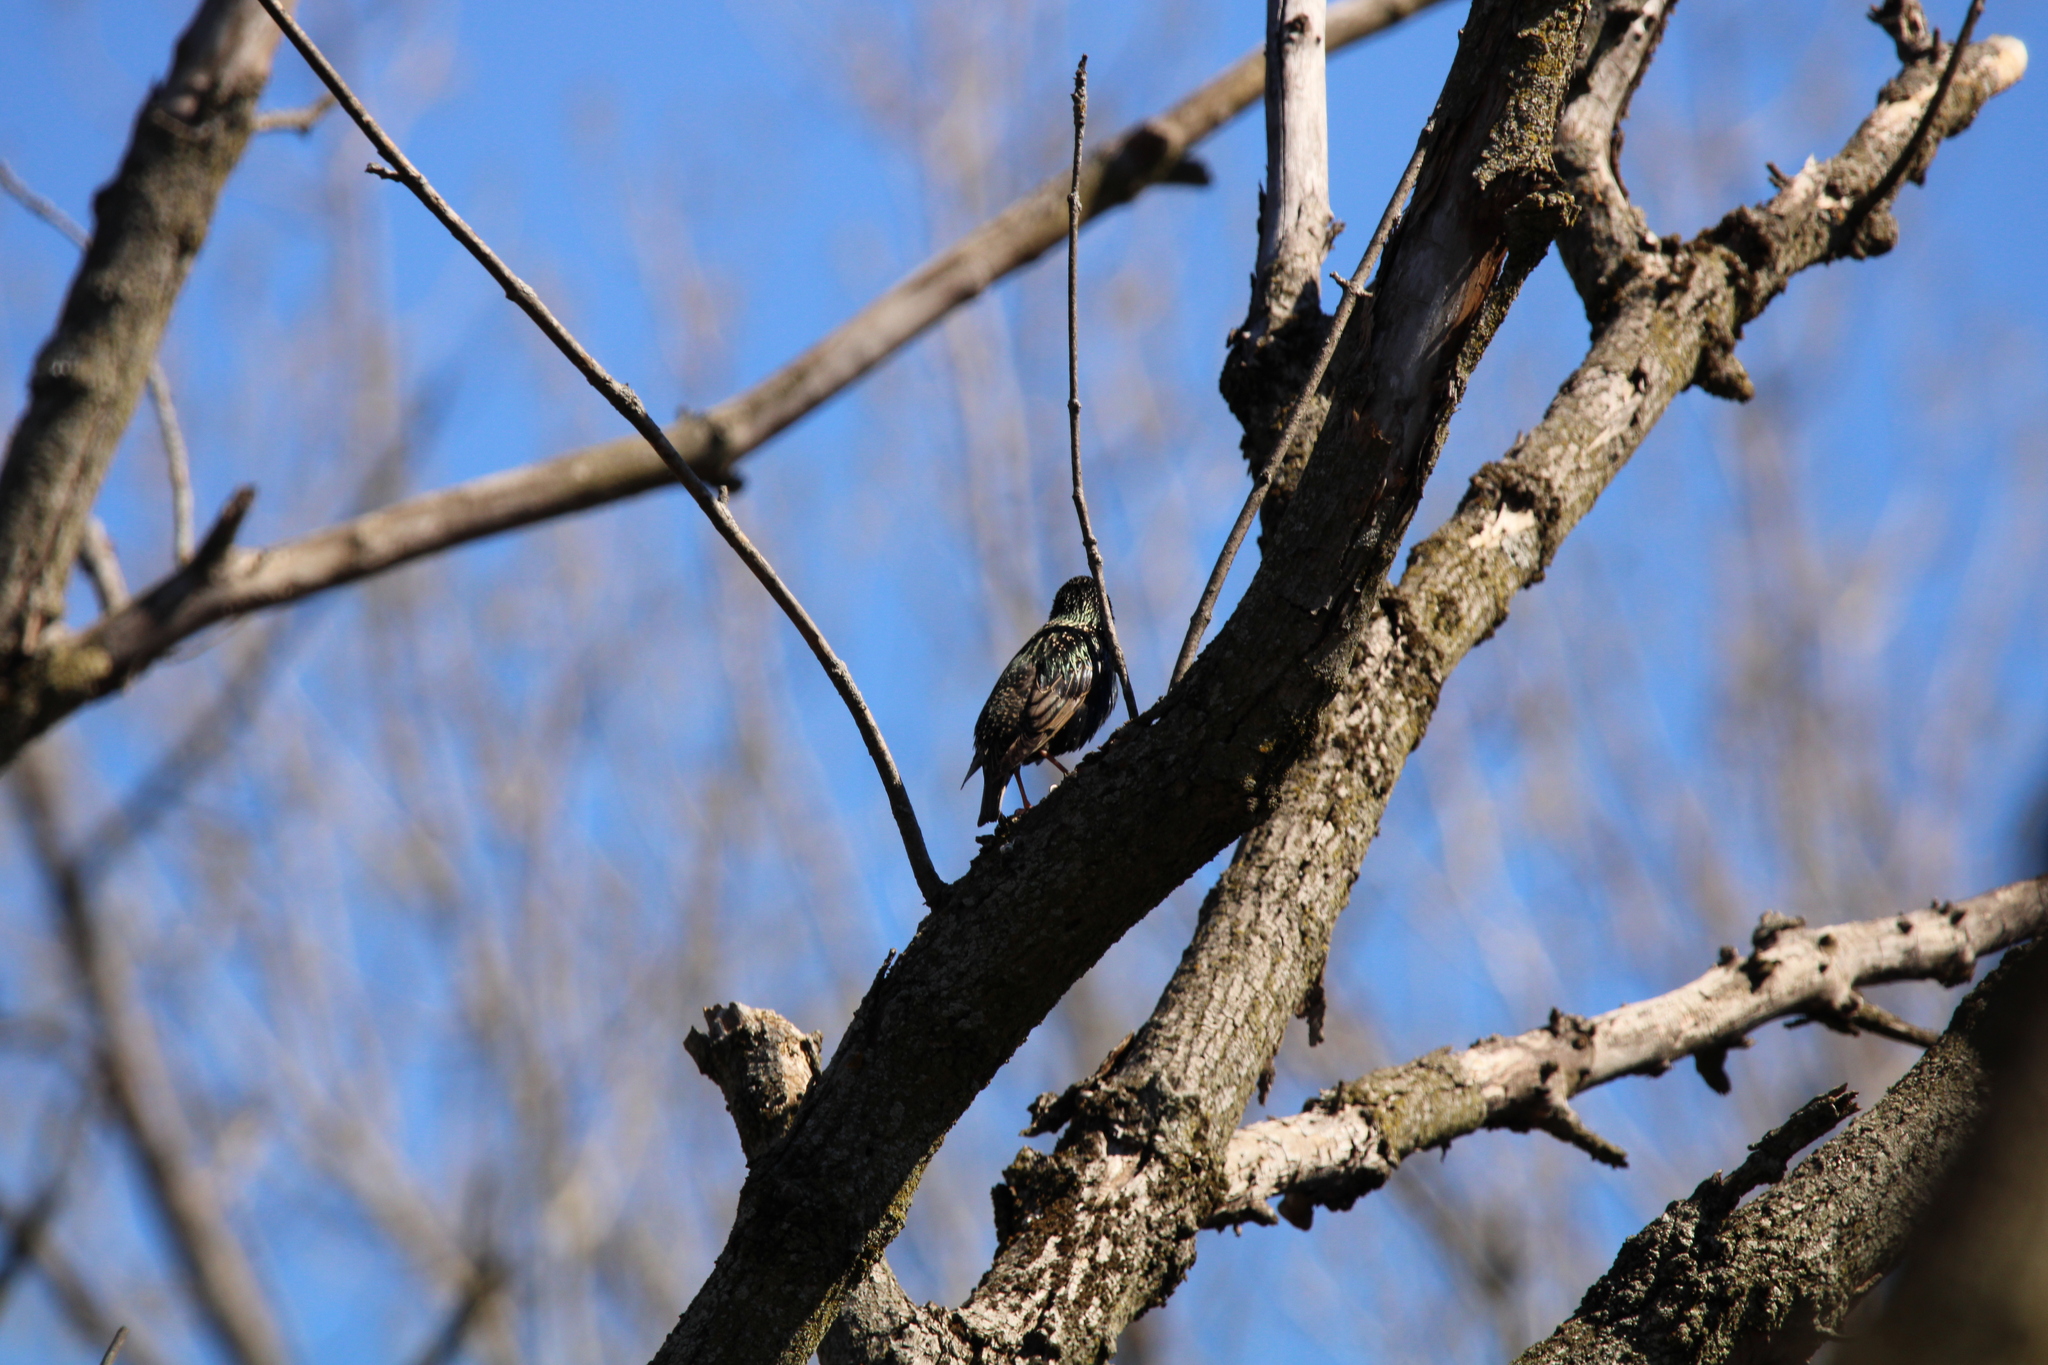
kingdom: Animalia
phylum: Chordata
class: Aves
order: Passeriformes
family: Sturnidae
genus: Sturnus
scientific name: Sturnus vulgaris
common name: Common starling
